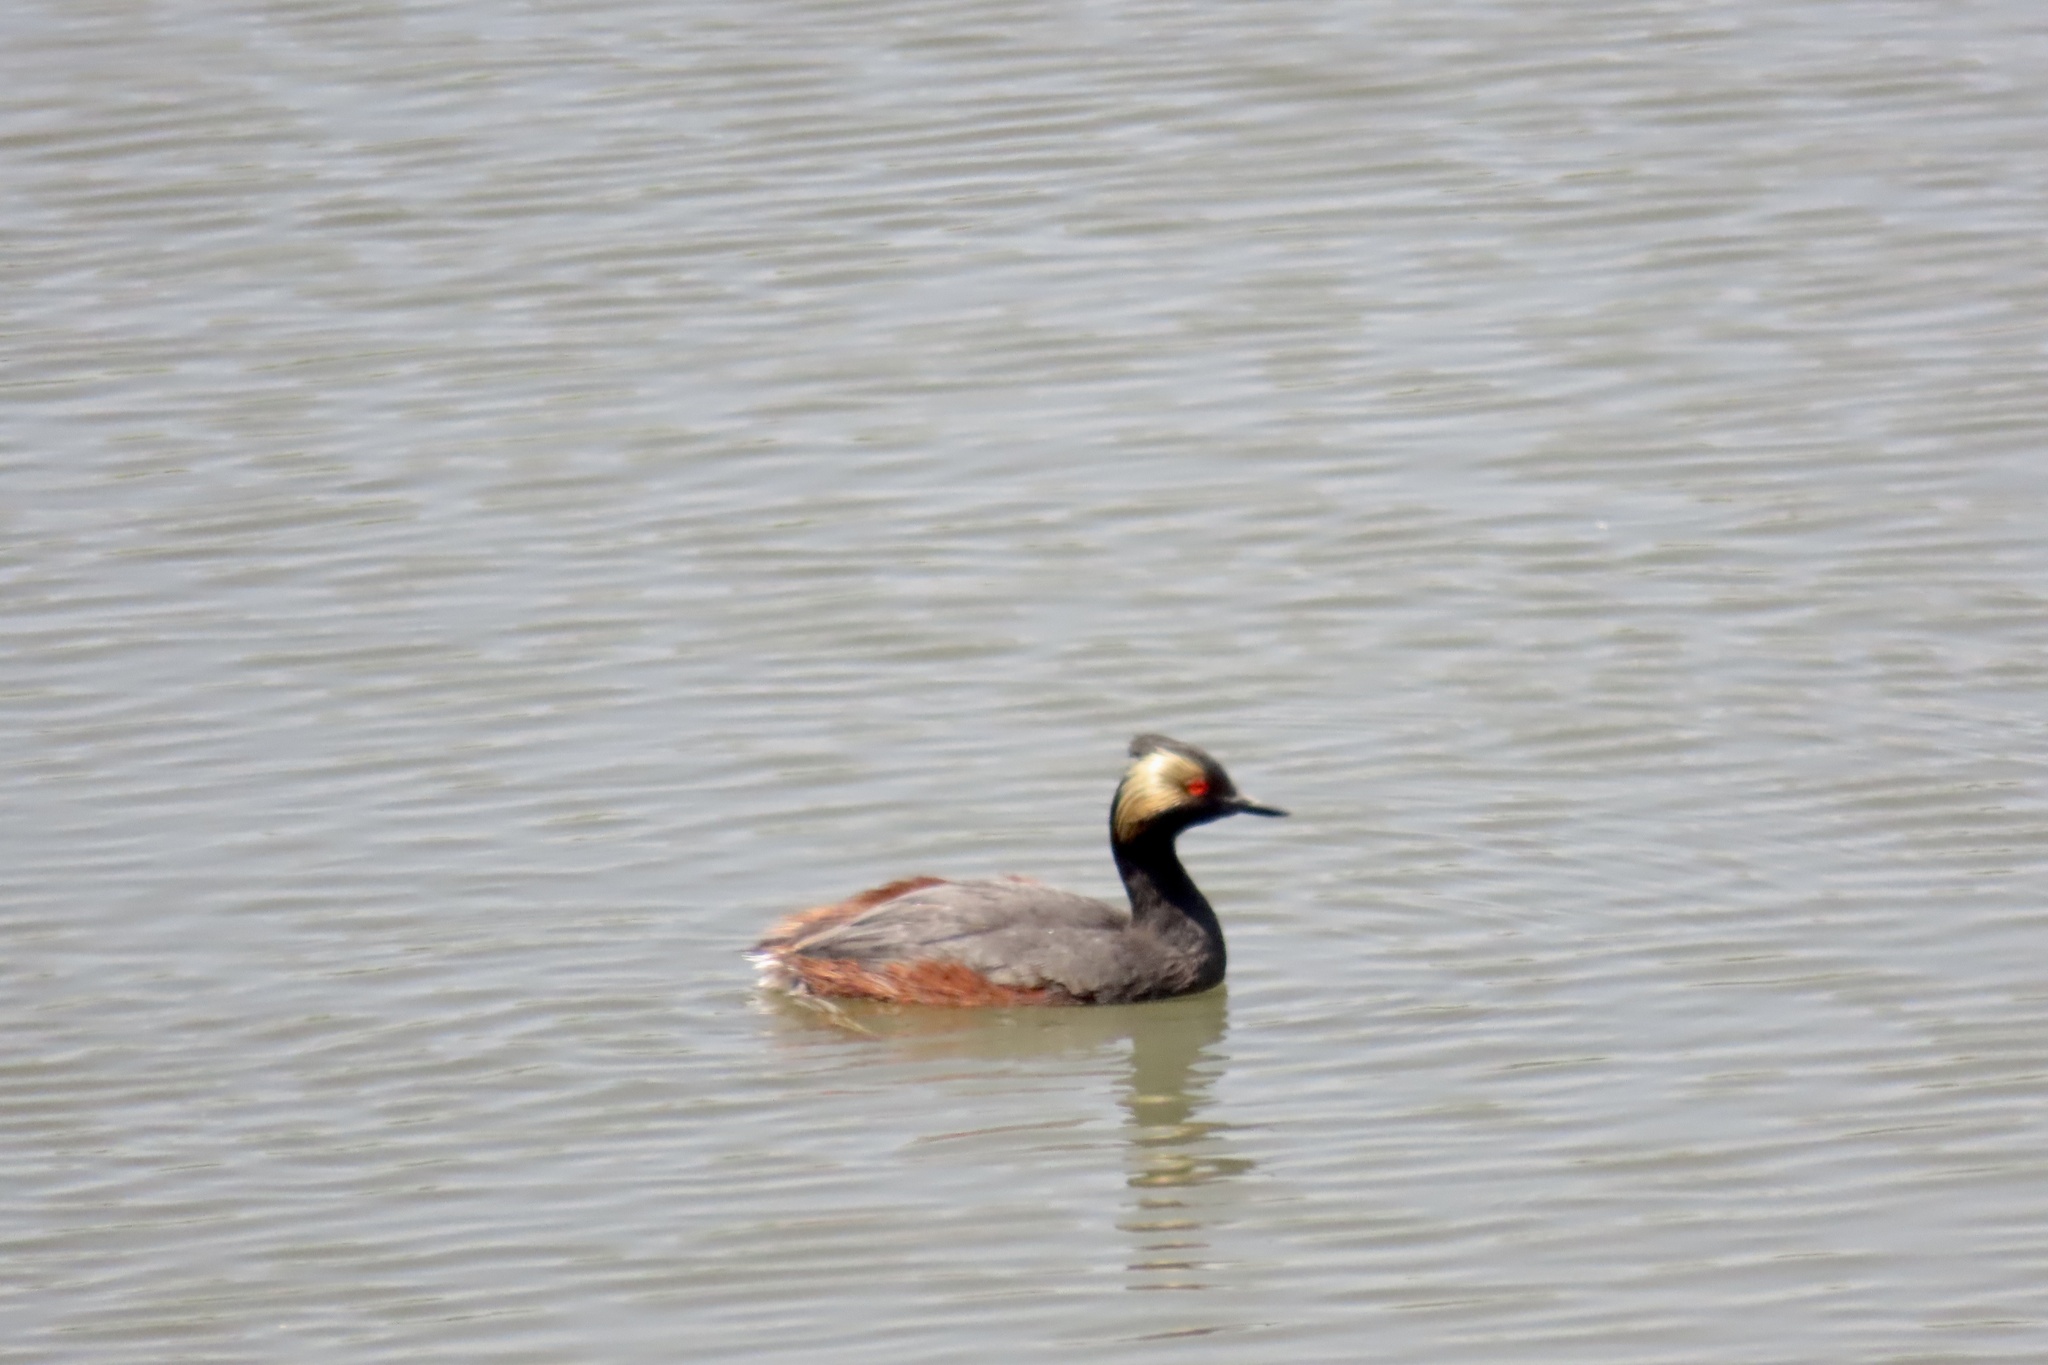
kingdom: Animalia
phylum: Chordata
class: Aves
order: Podicipediformes
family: Podicipedidae
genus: Podiceps
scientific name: Podiceps nigricollis
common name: Black-necked grebe
